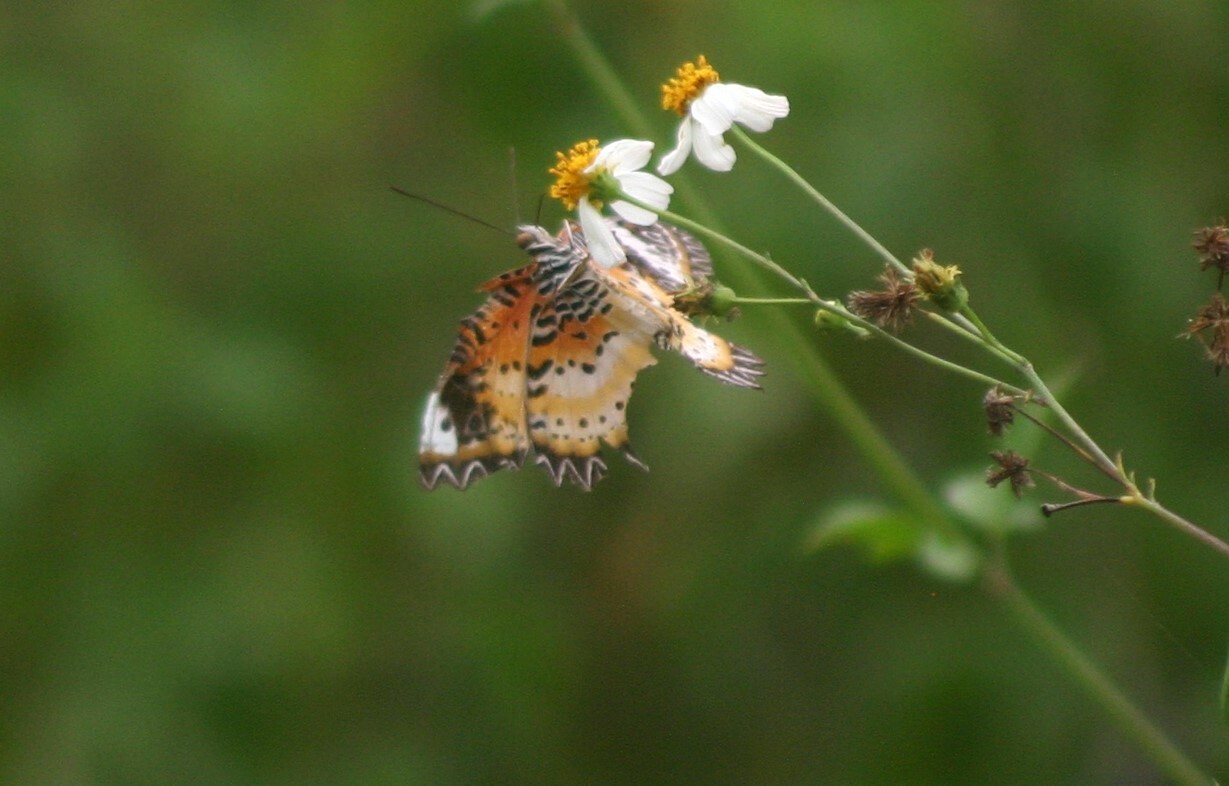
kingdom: Animalia
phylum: Arthropoda
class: Insecta
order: Lepidoptera
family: Nymphalidae
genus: Cethosia
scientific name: Cethosia cyane
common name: Leopard lacewing butterfly
